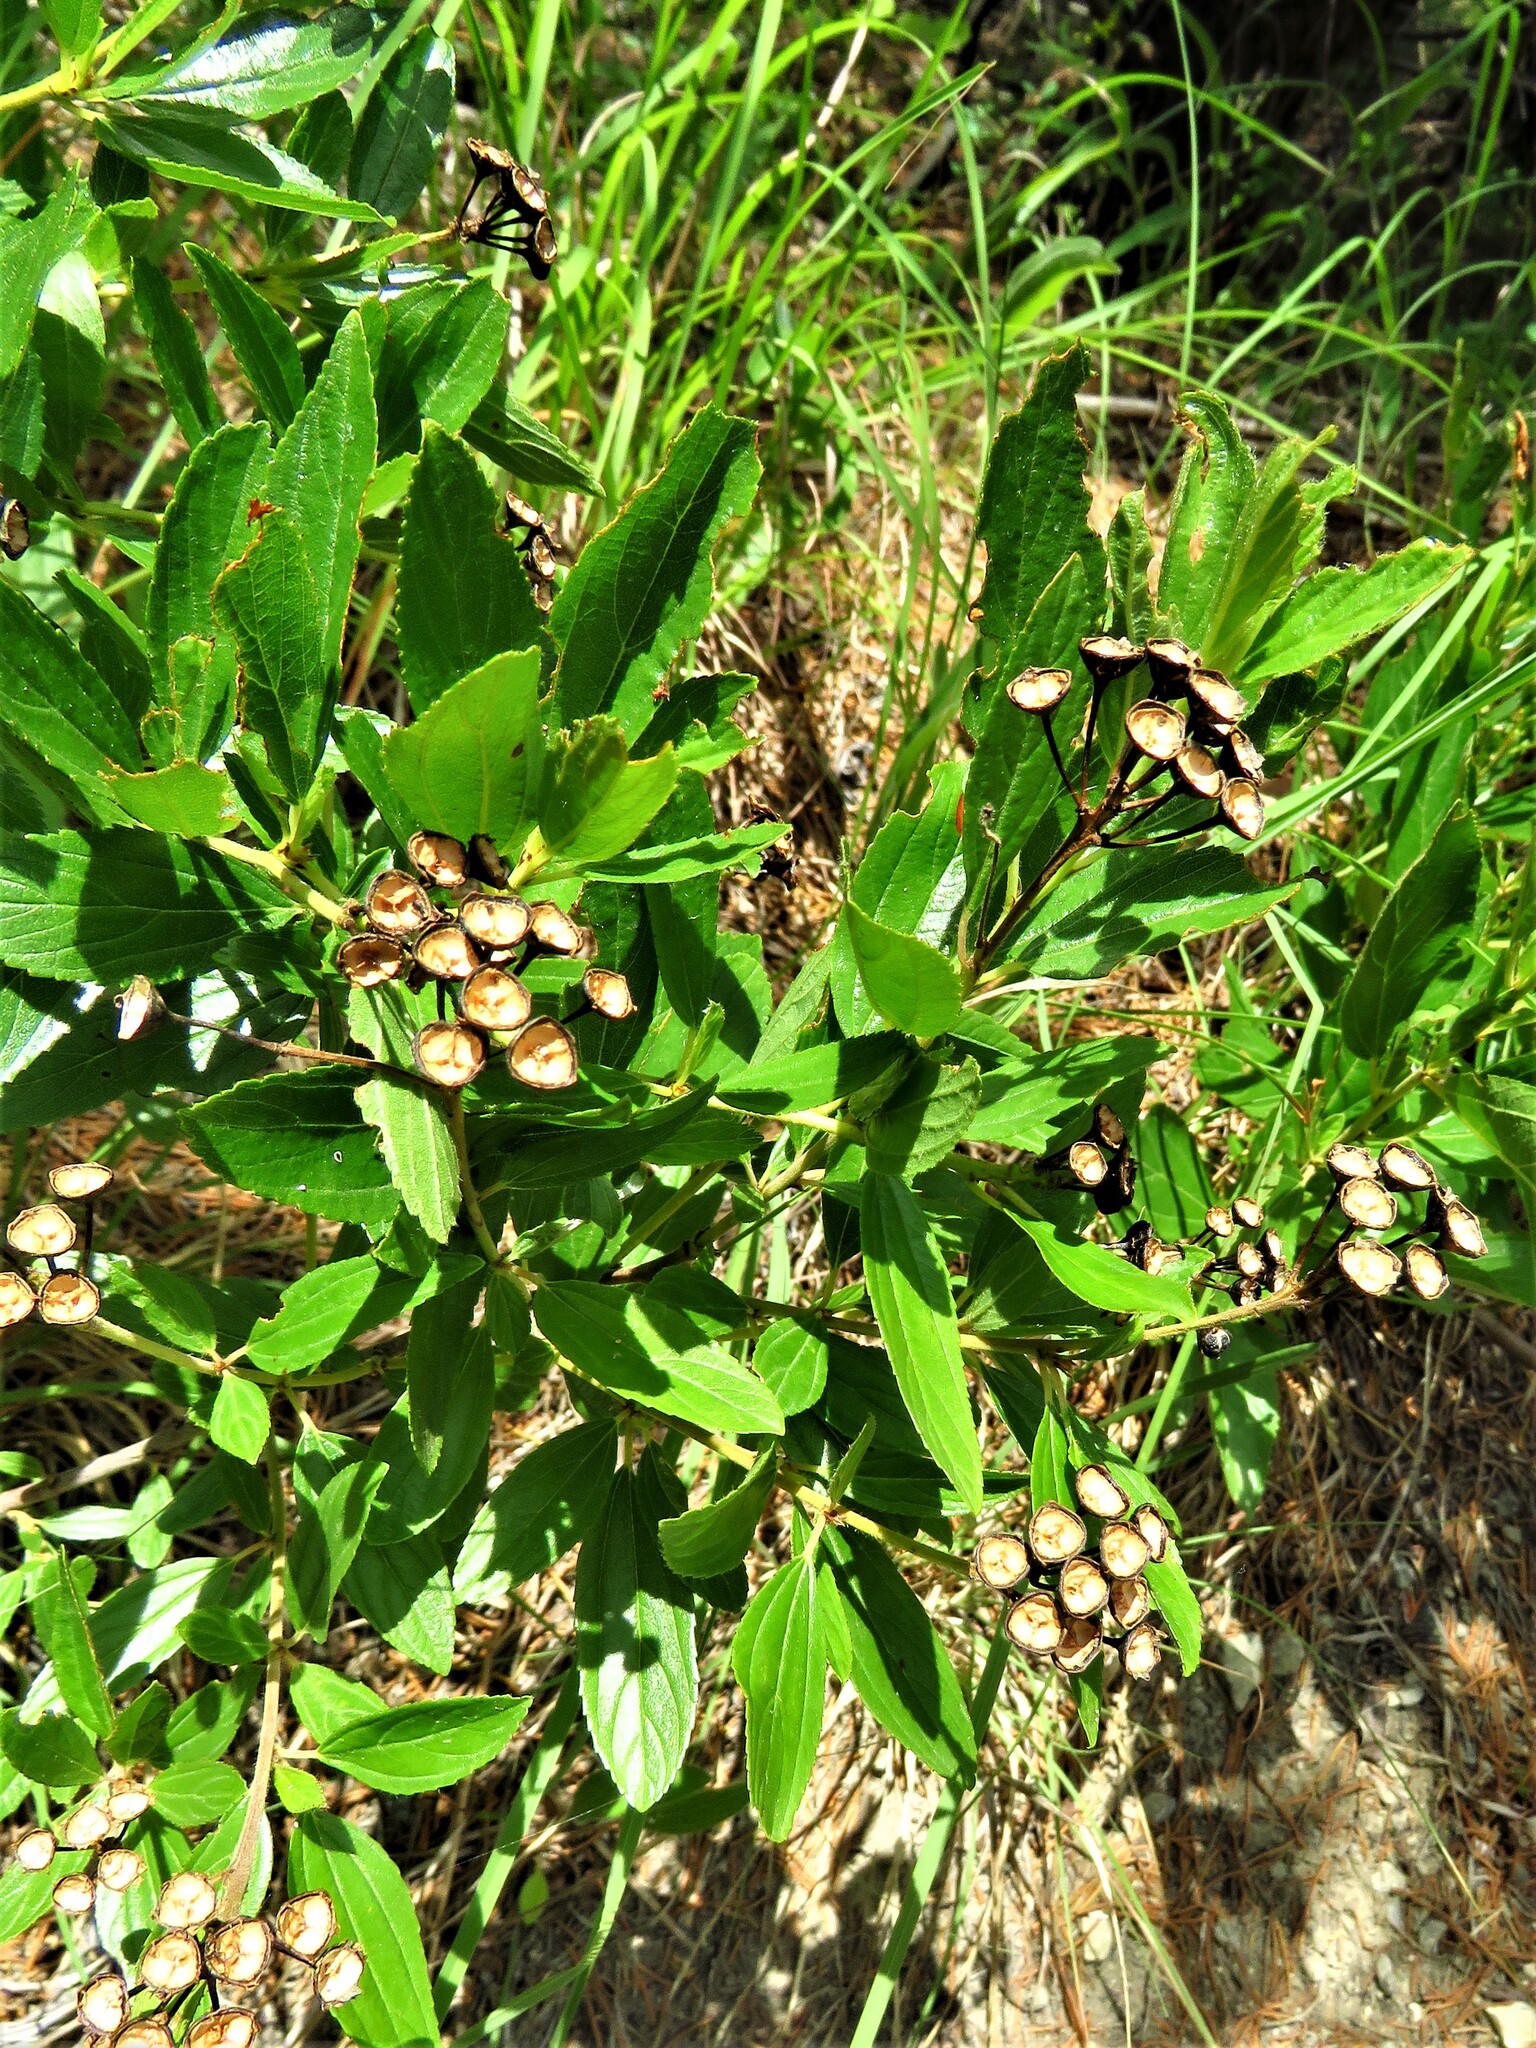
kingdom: Plantae
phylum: Tracheophyta
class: Magnoliopsida
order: Rosales
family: Rhamnaceae
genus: Ceanothus
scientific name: Ceanothus herbaceus
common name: Inland ceanothus
